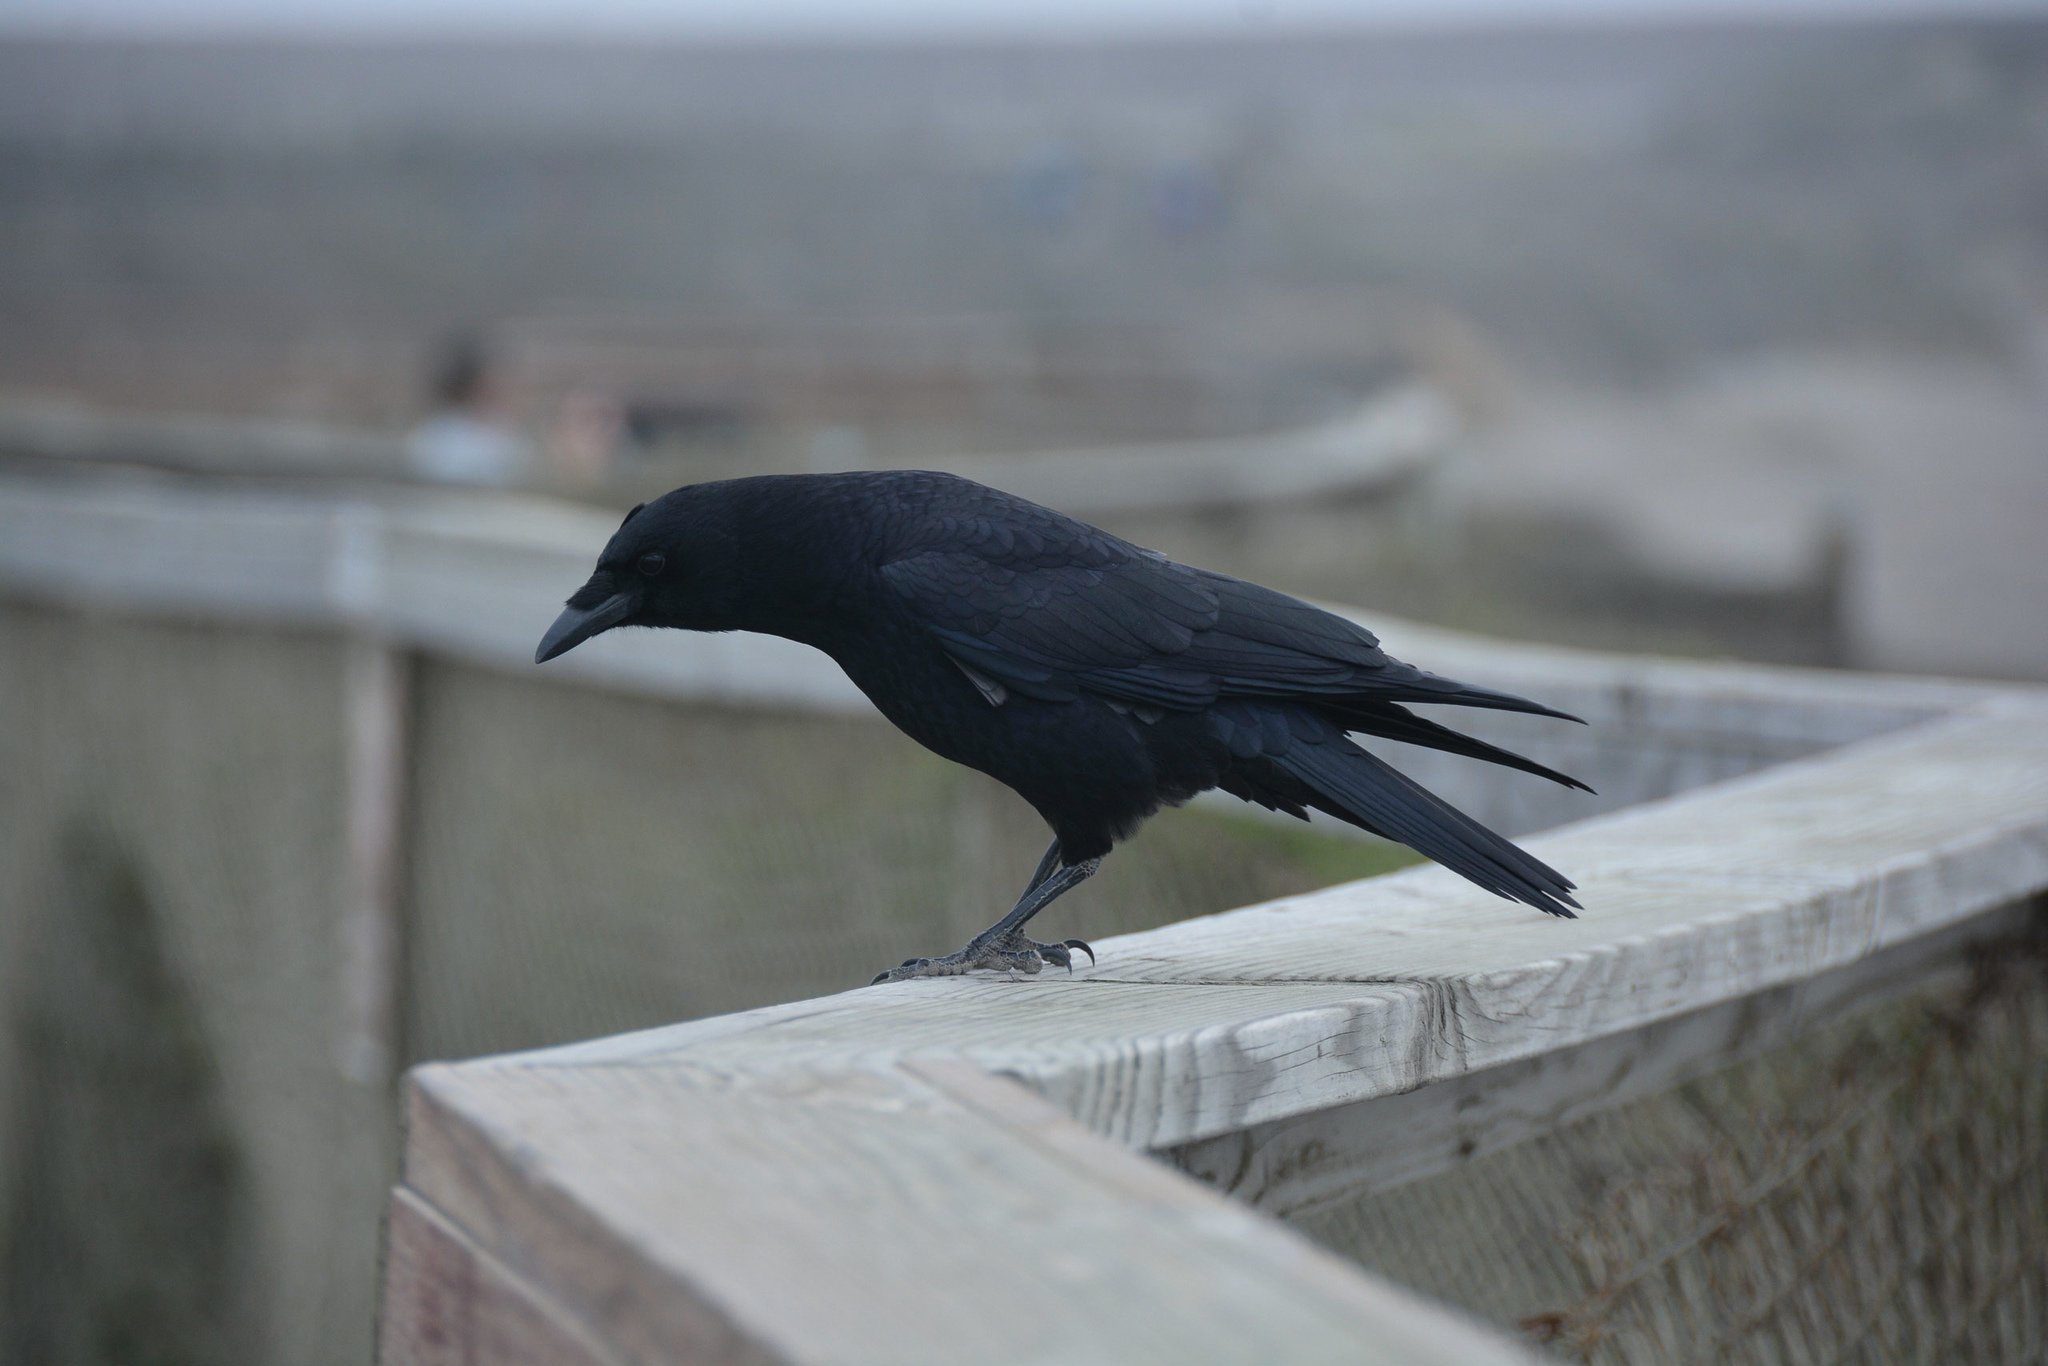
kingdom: Animalia
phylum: Chordata
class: Aves
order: Passeriformes
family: Corvidae
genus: Corvus
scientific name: Corvus brachyrhynchos
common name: American crow
